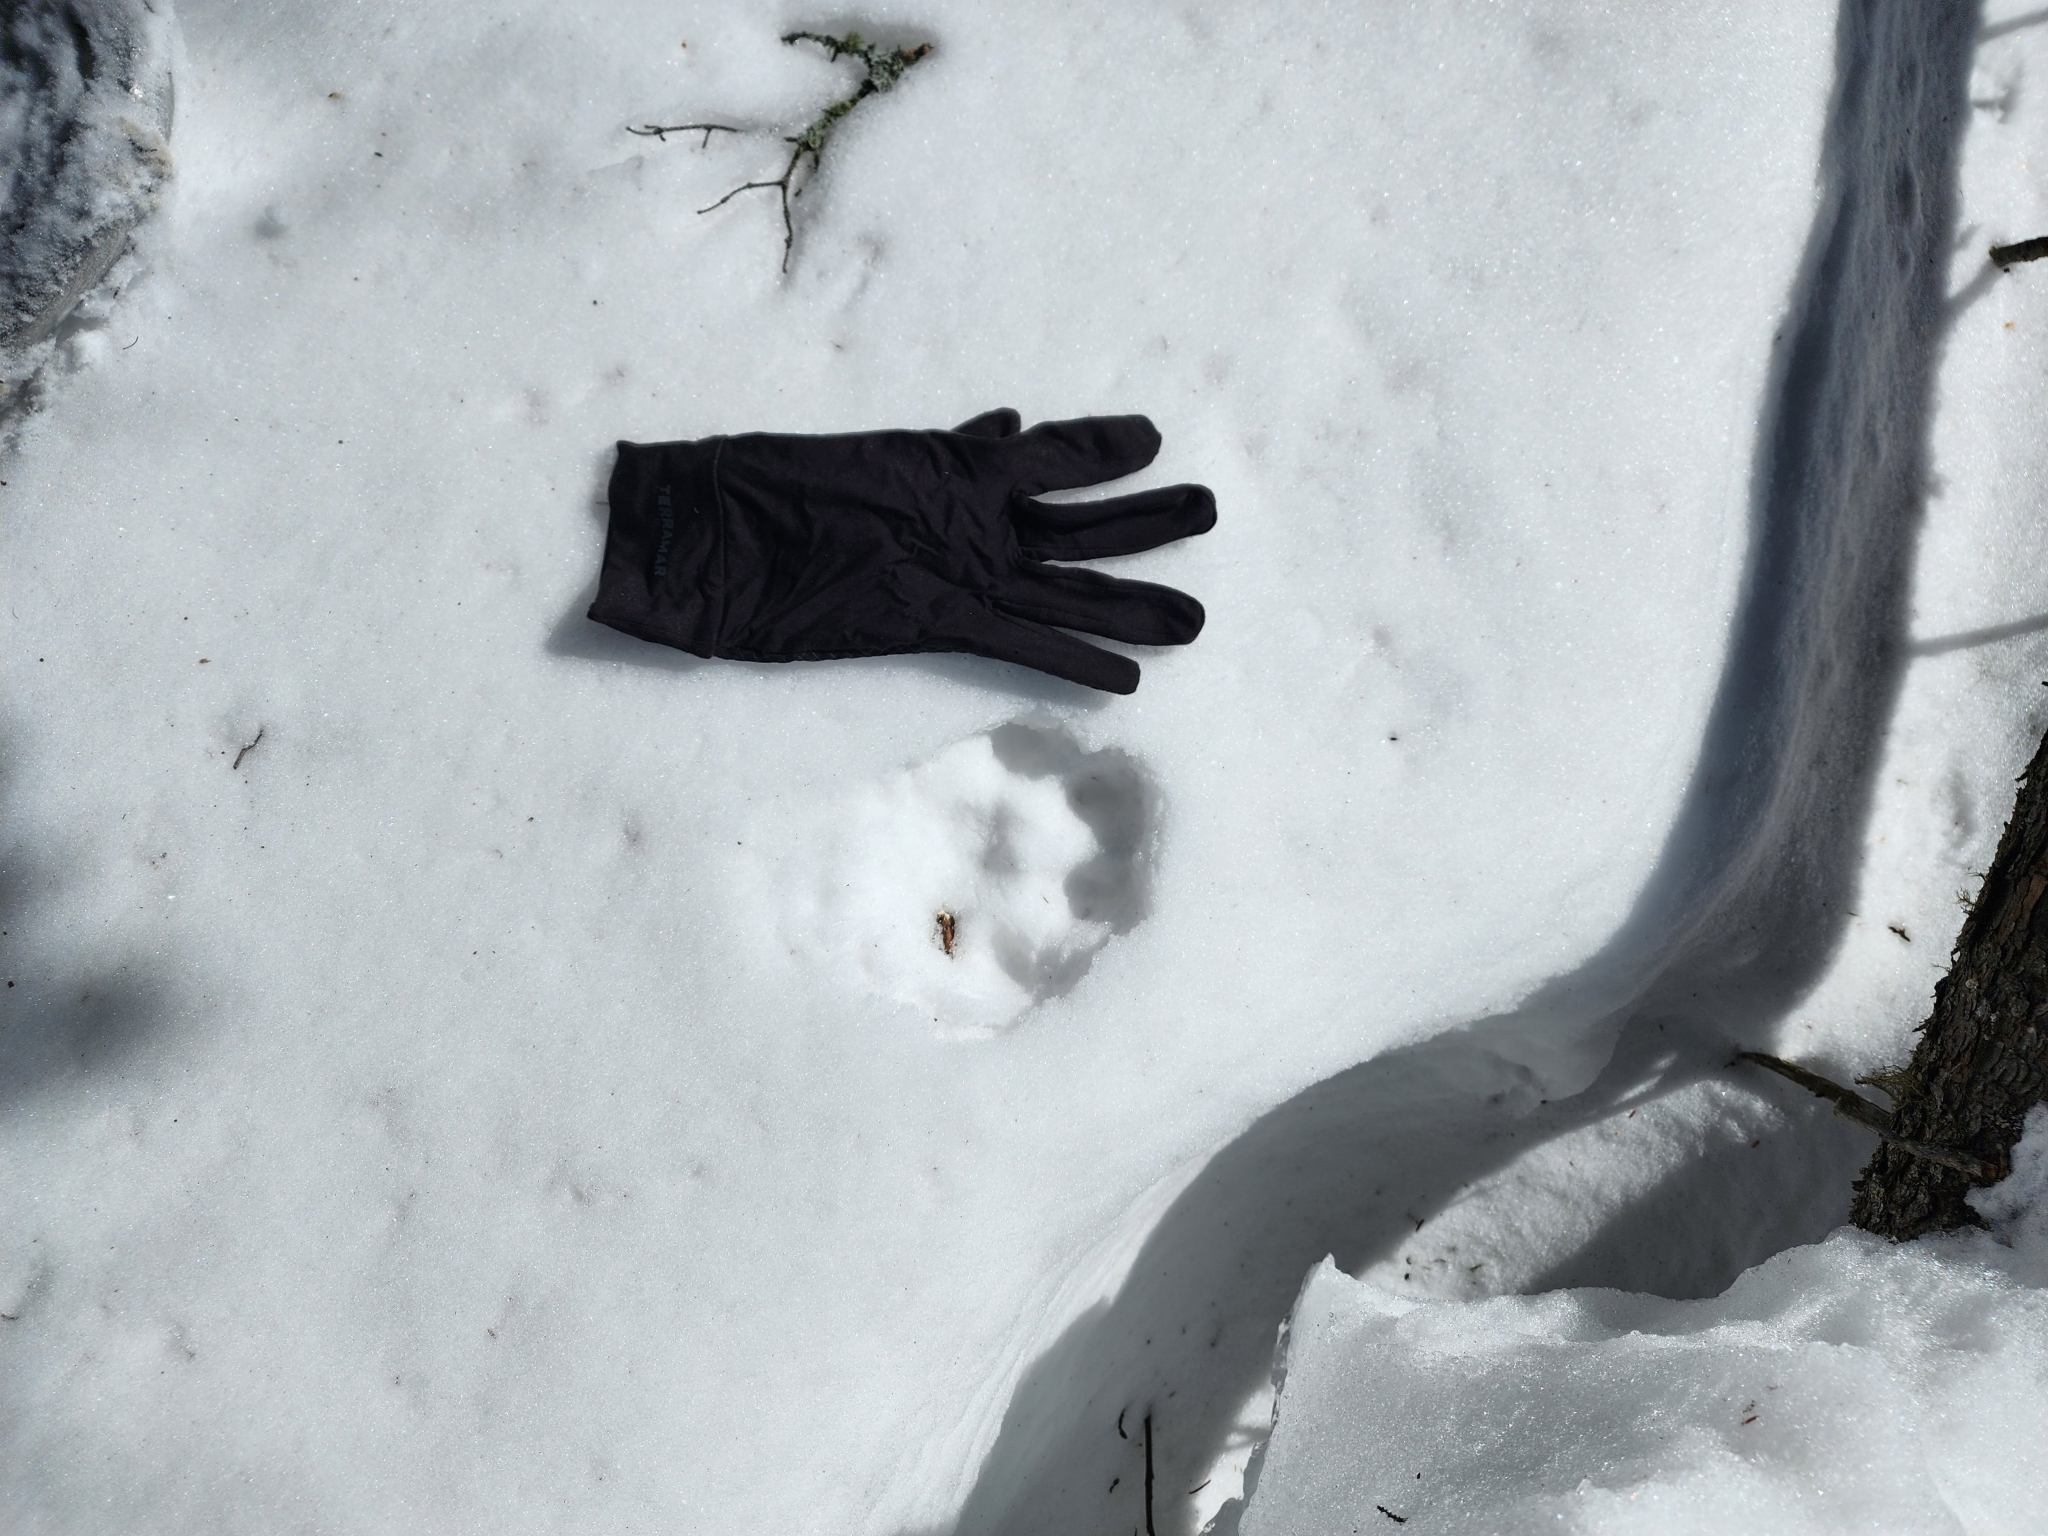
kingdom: Animalia
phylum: Chordata
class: Mammalia
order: Carnivora
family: Felidae
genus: Lynx
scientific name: Lynx canadensis
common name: Canadian lynx
